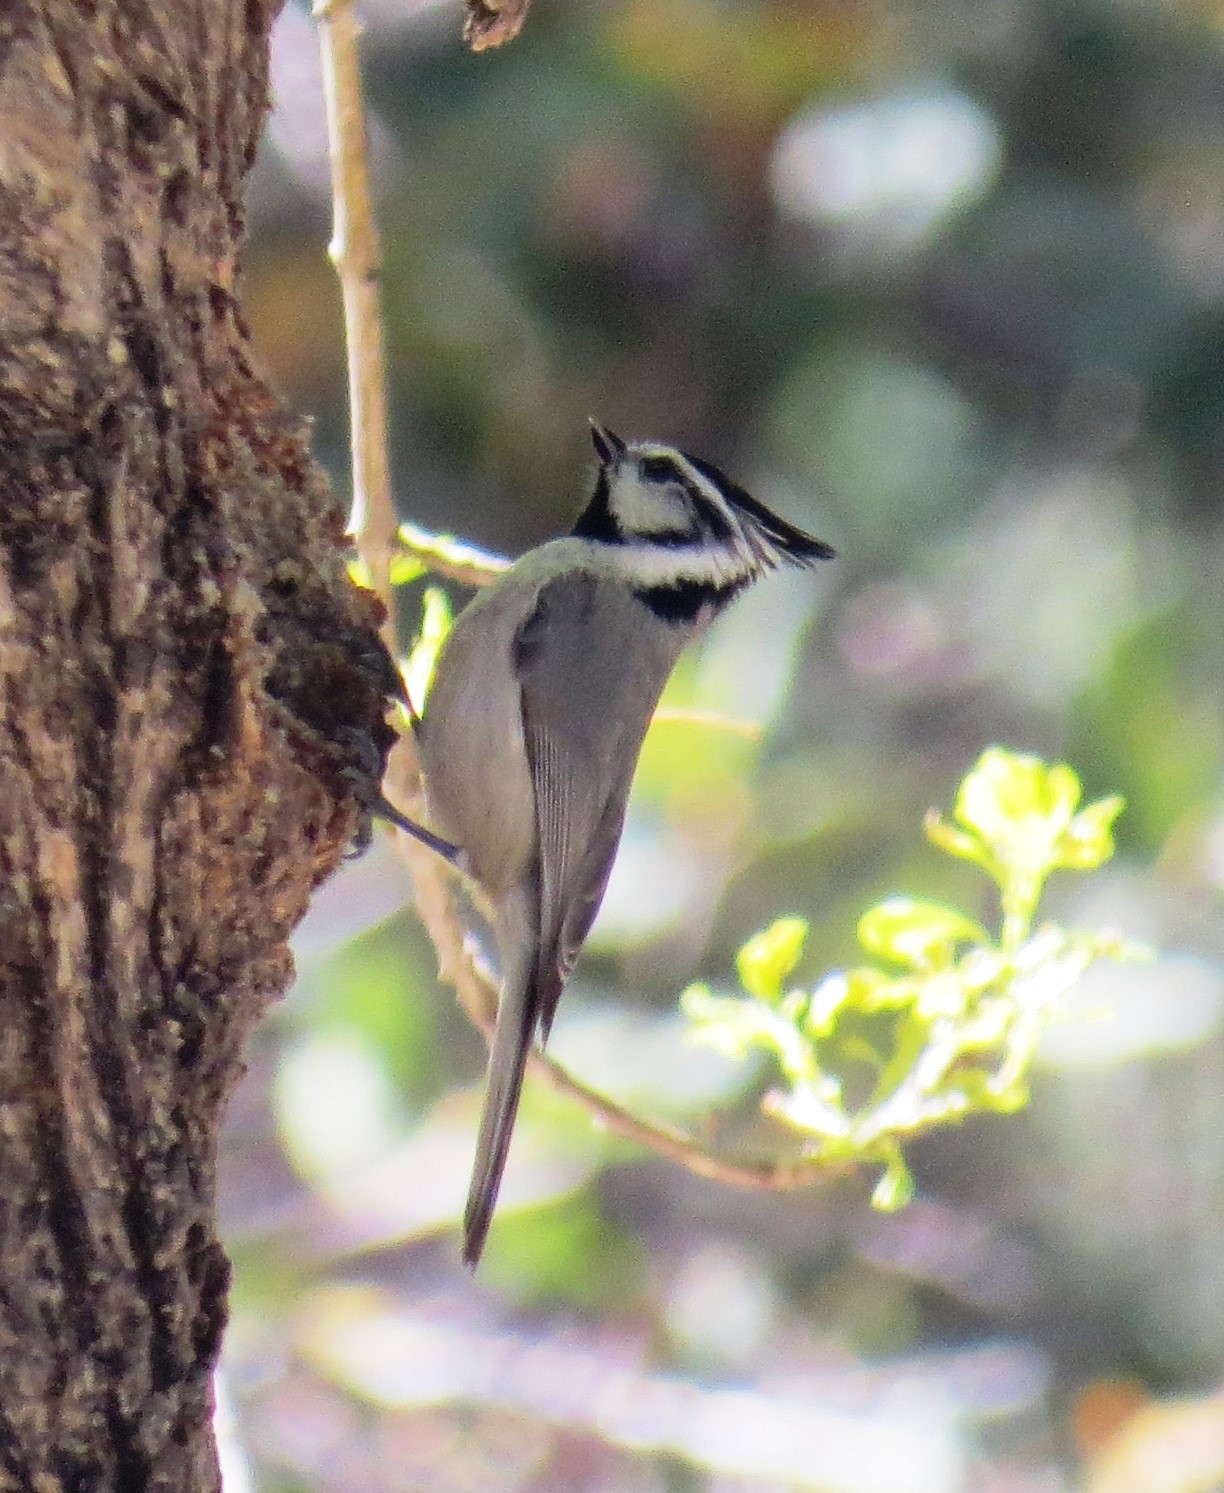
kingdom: Animalia
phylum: Chordata
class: Aves
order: Passeriformes
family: Paridae
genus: Baeolophus
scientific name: Baeolophus wollweberi
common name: Bridled titmouse
